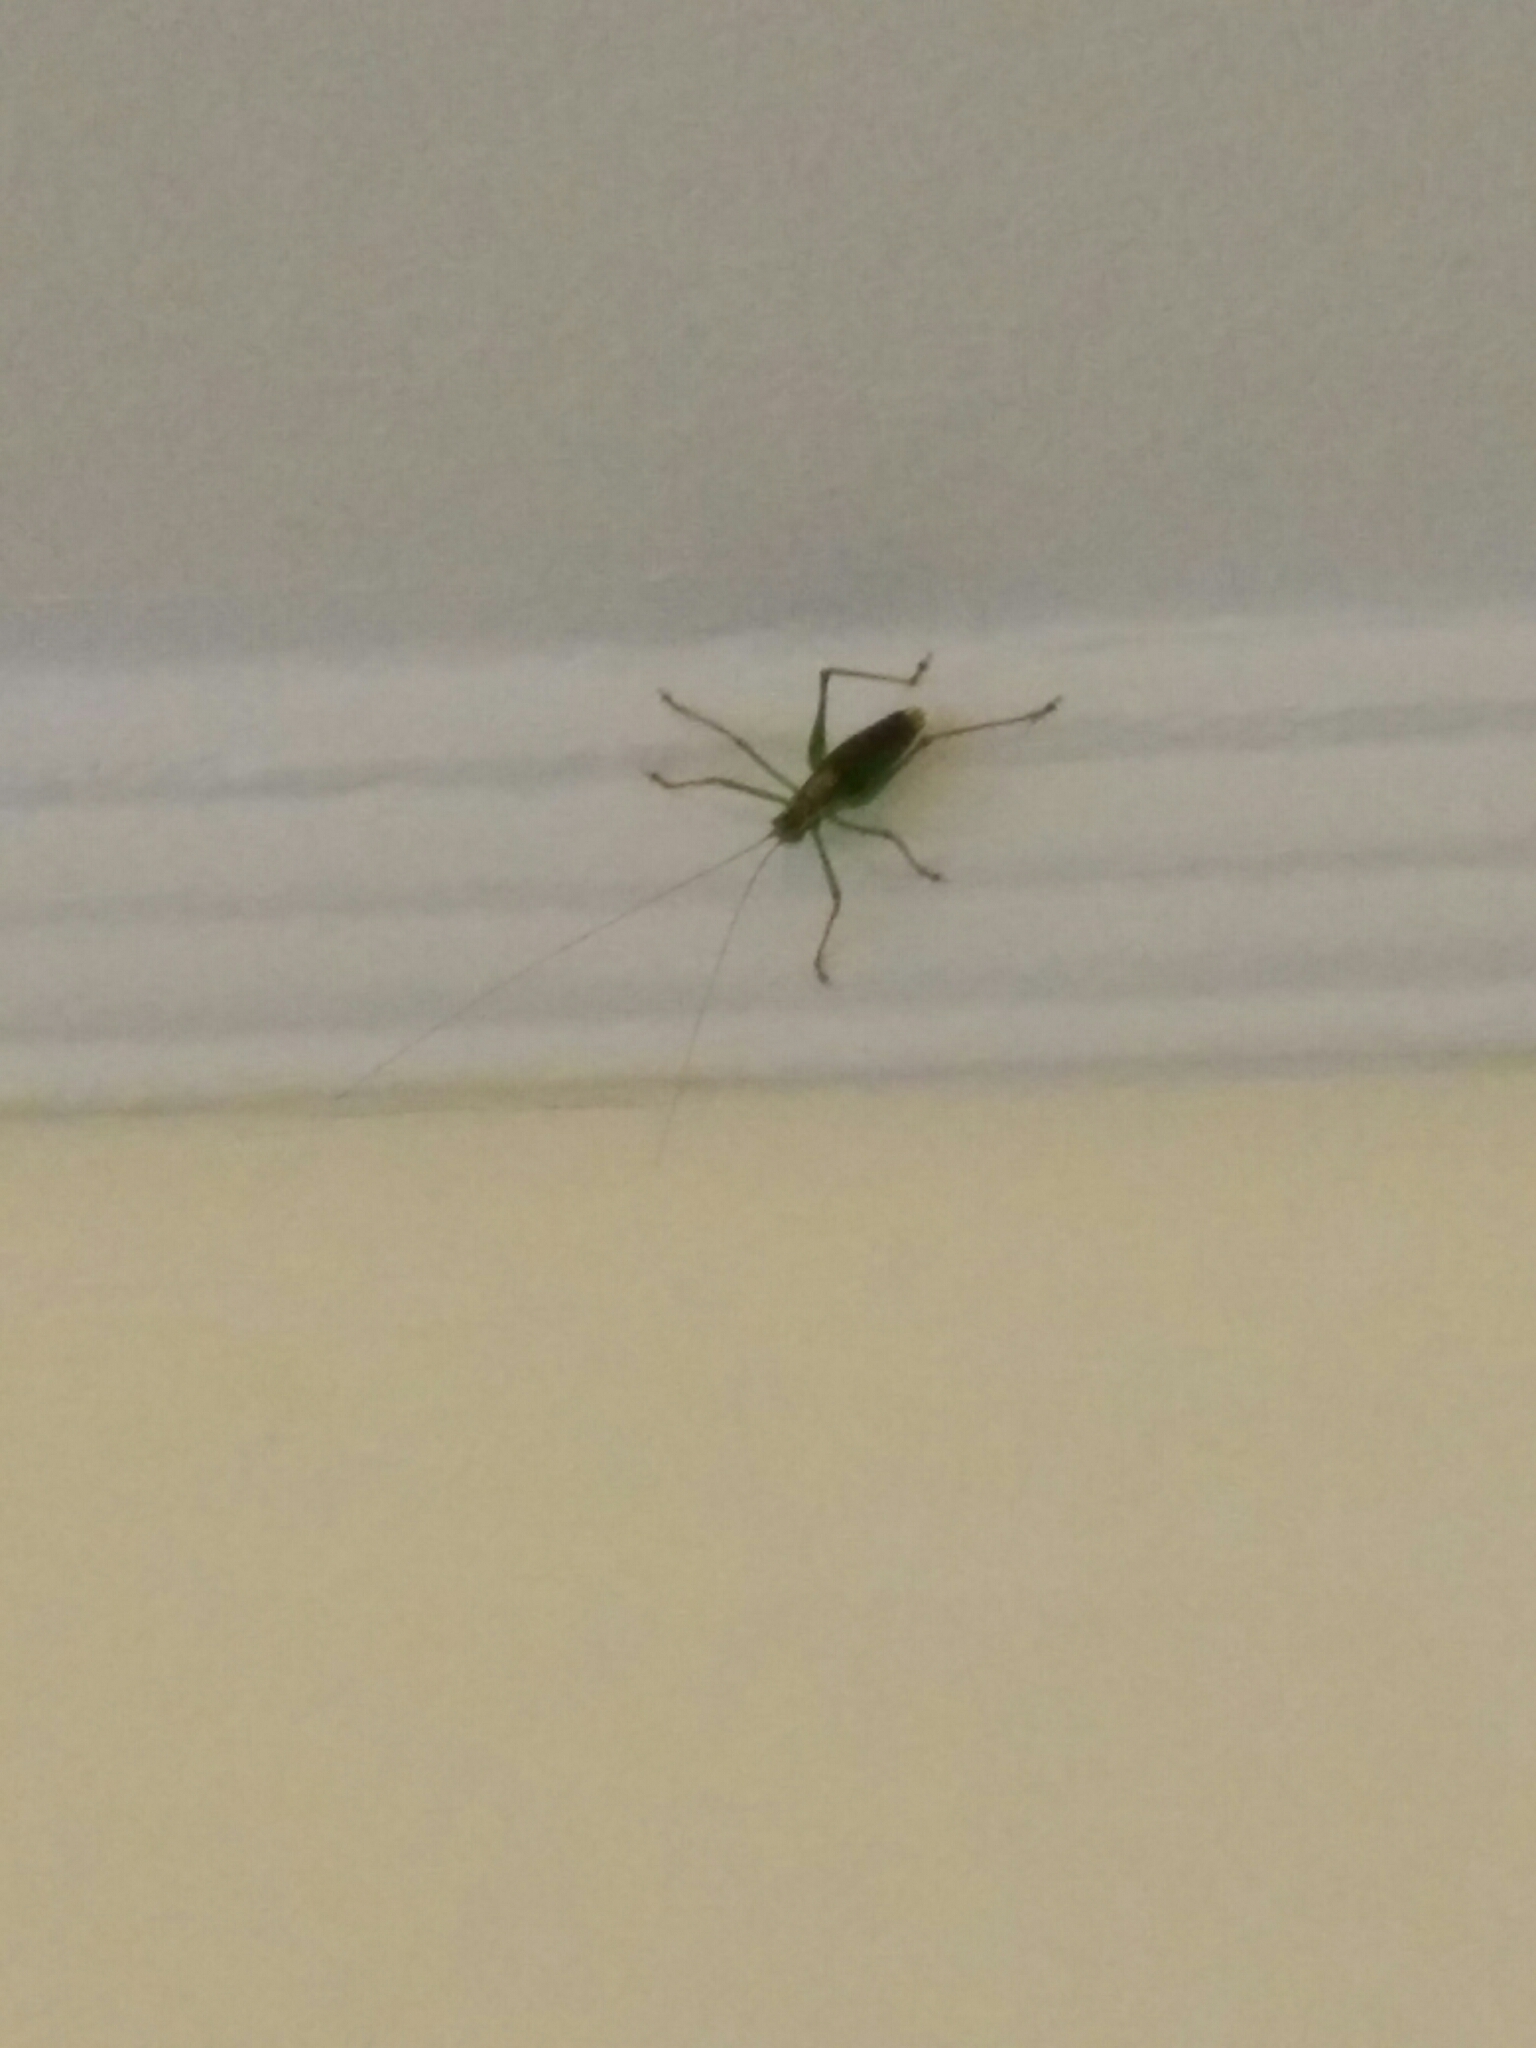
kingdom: Animalia
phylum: Arthropoda
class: Insecta
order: Orthoptera
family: Tettigoniidae
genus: Leptophyes
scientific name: Leptophyes punctatissima
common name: Speckled bush-cricket
